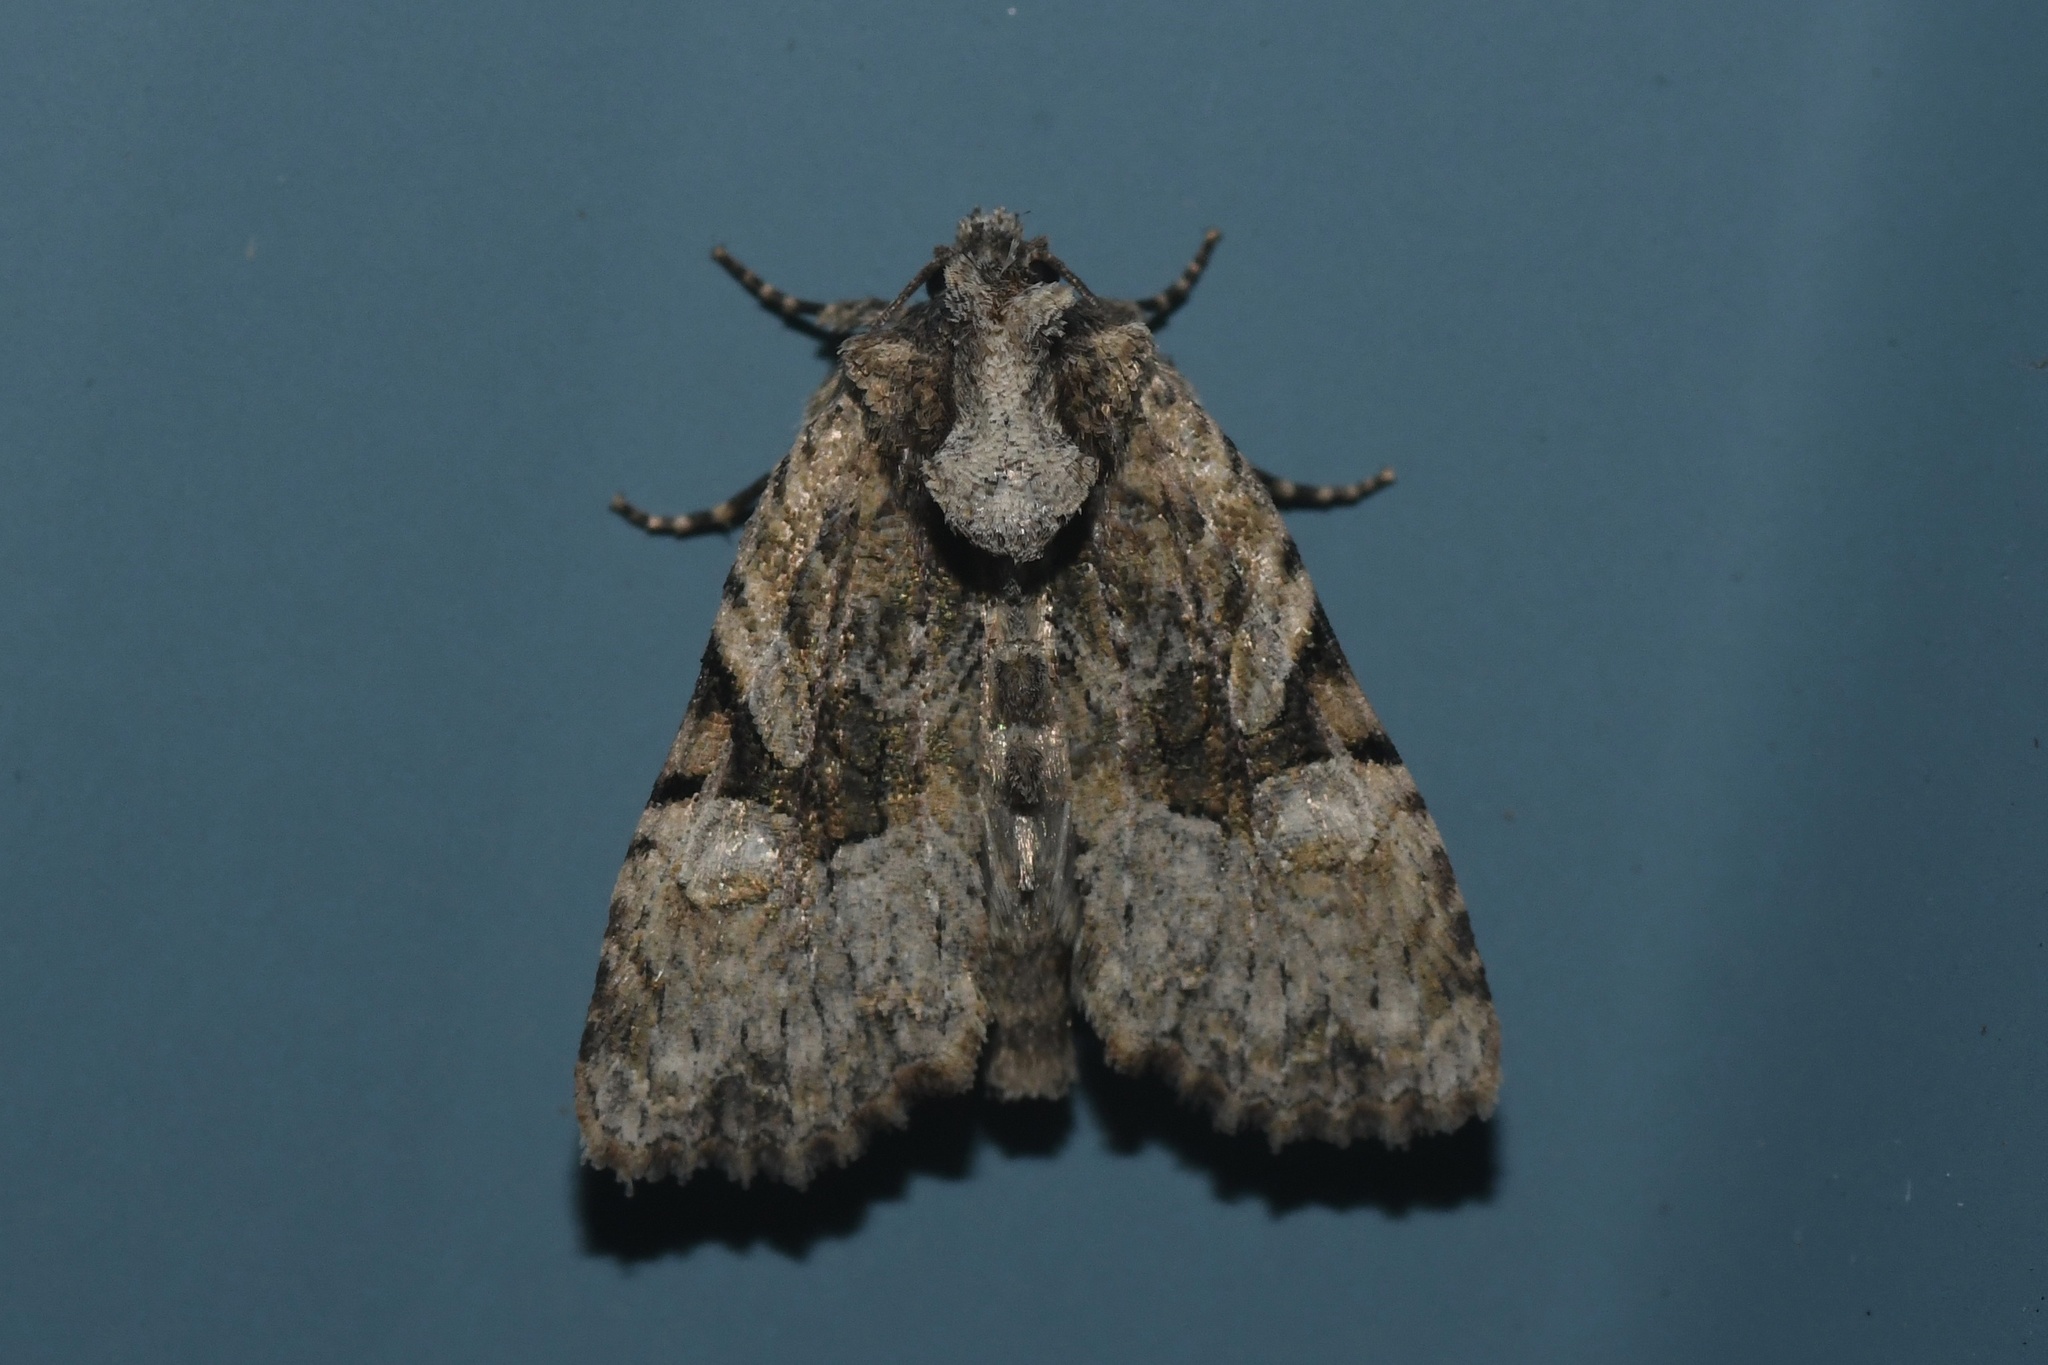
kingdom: Animalia
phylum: Arthropoda
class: Insecta
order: Lepidoptera
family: Noctuidae
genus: Oligia
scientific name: Oligia modica
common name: Black-banded brocade
